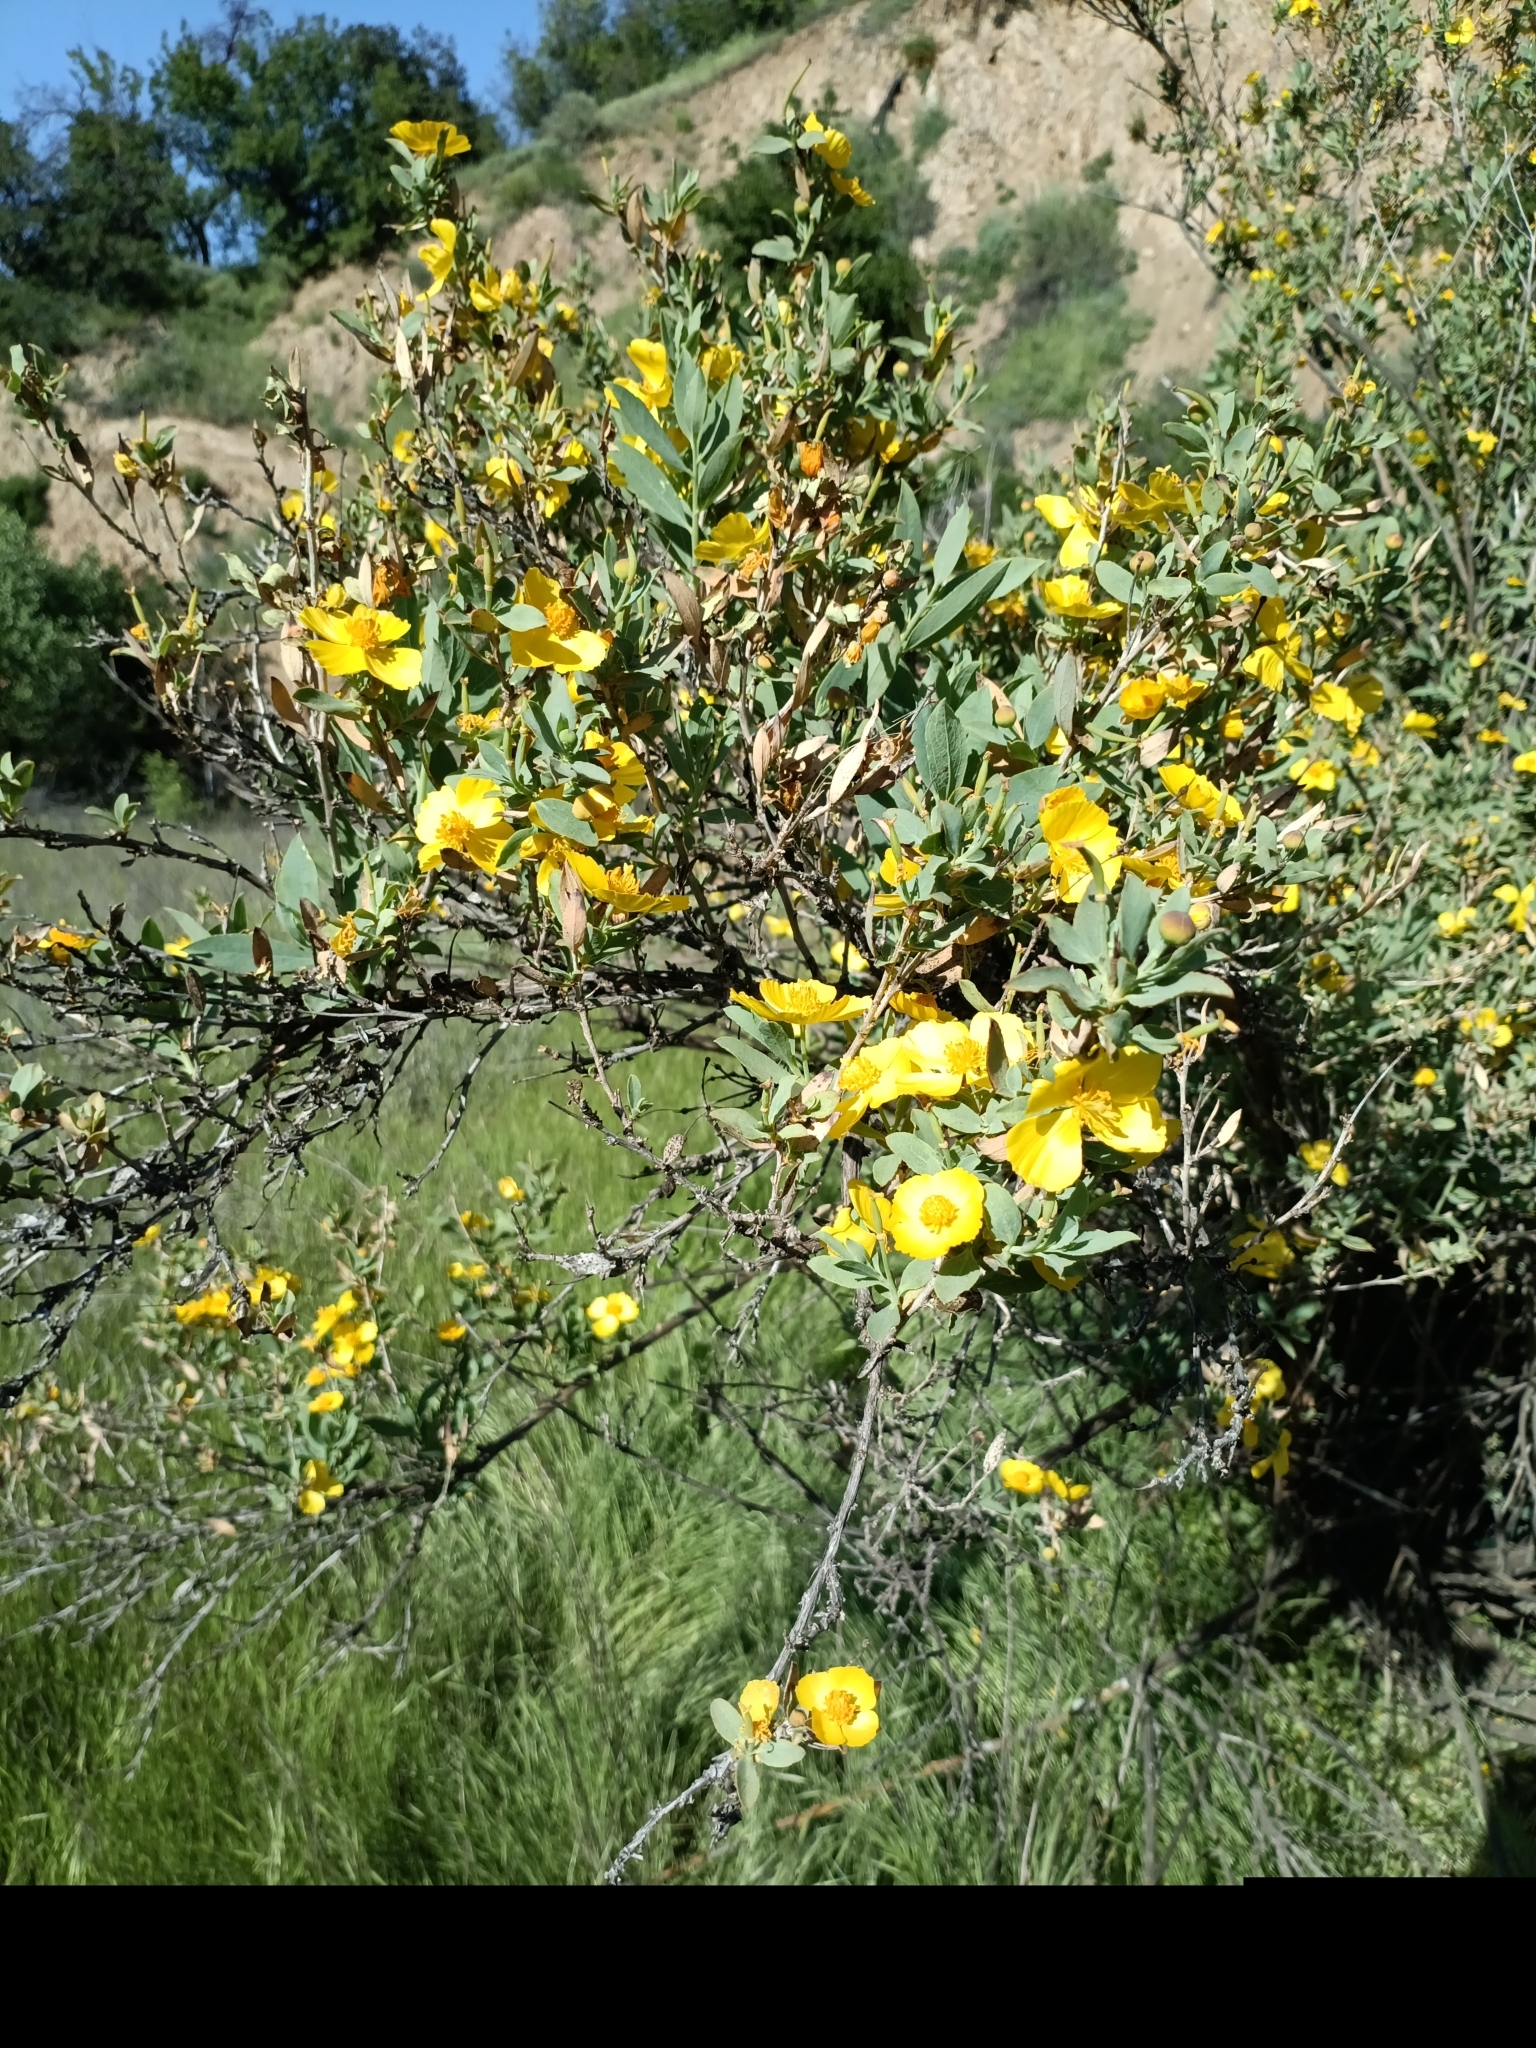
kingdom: Plantae
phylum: Tracheophyta
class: Magnoliopsida
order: Ranunculales
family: Papaveraceae
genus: Dendromecon
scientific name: Dendromecon rigida
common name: Tree poppy
